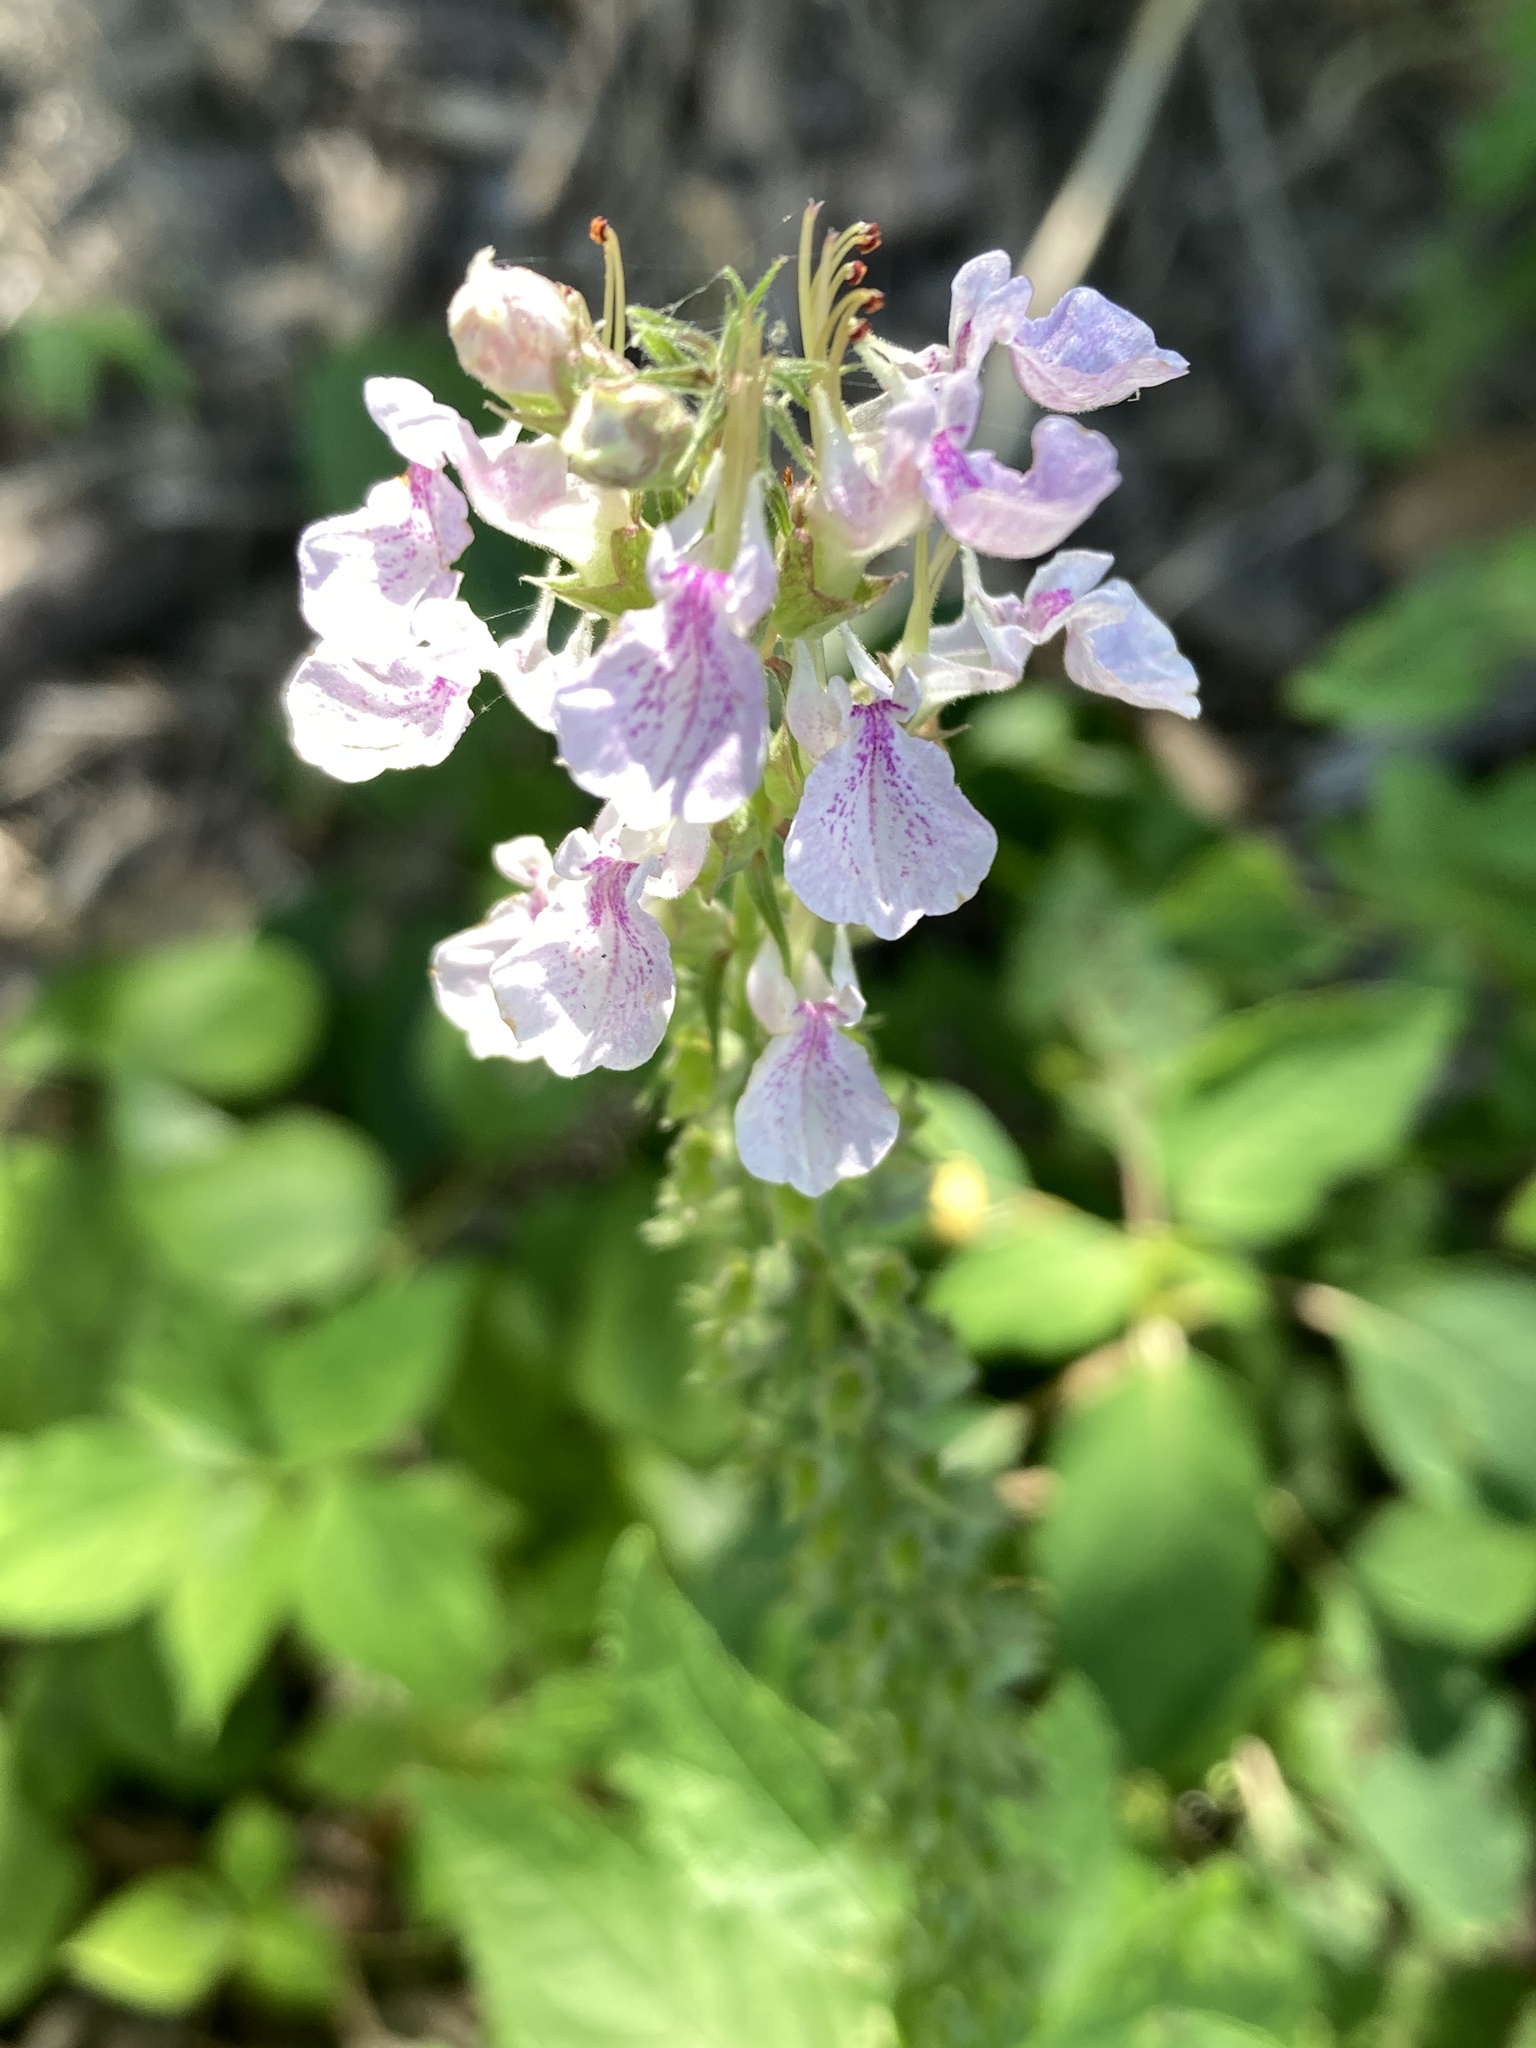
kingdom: Plantae
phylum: Tracheophyta
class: Magnoliopsida
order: Lamiales
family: Lamiaceae
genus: Teucrium
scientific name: Teucrium canadense
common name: American germander
